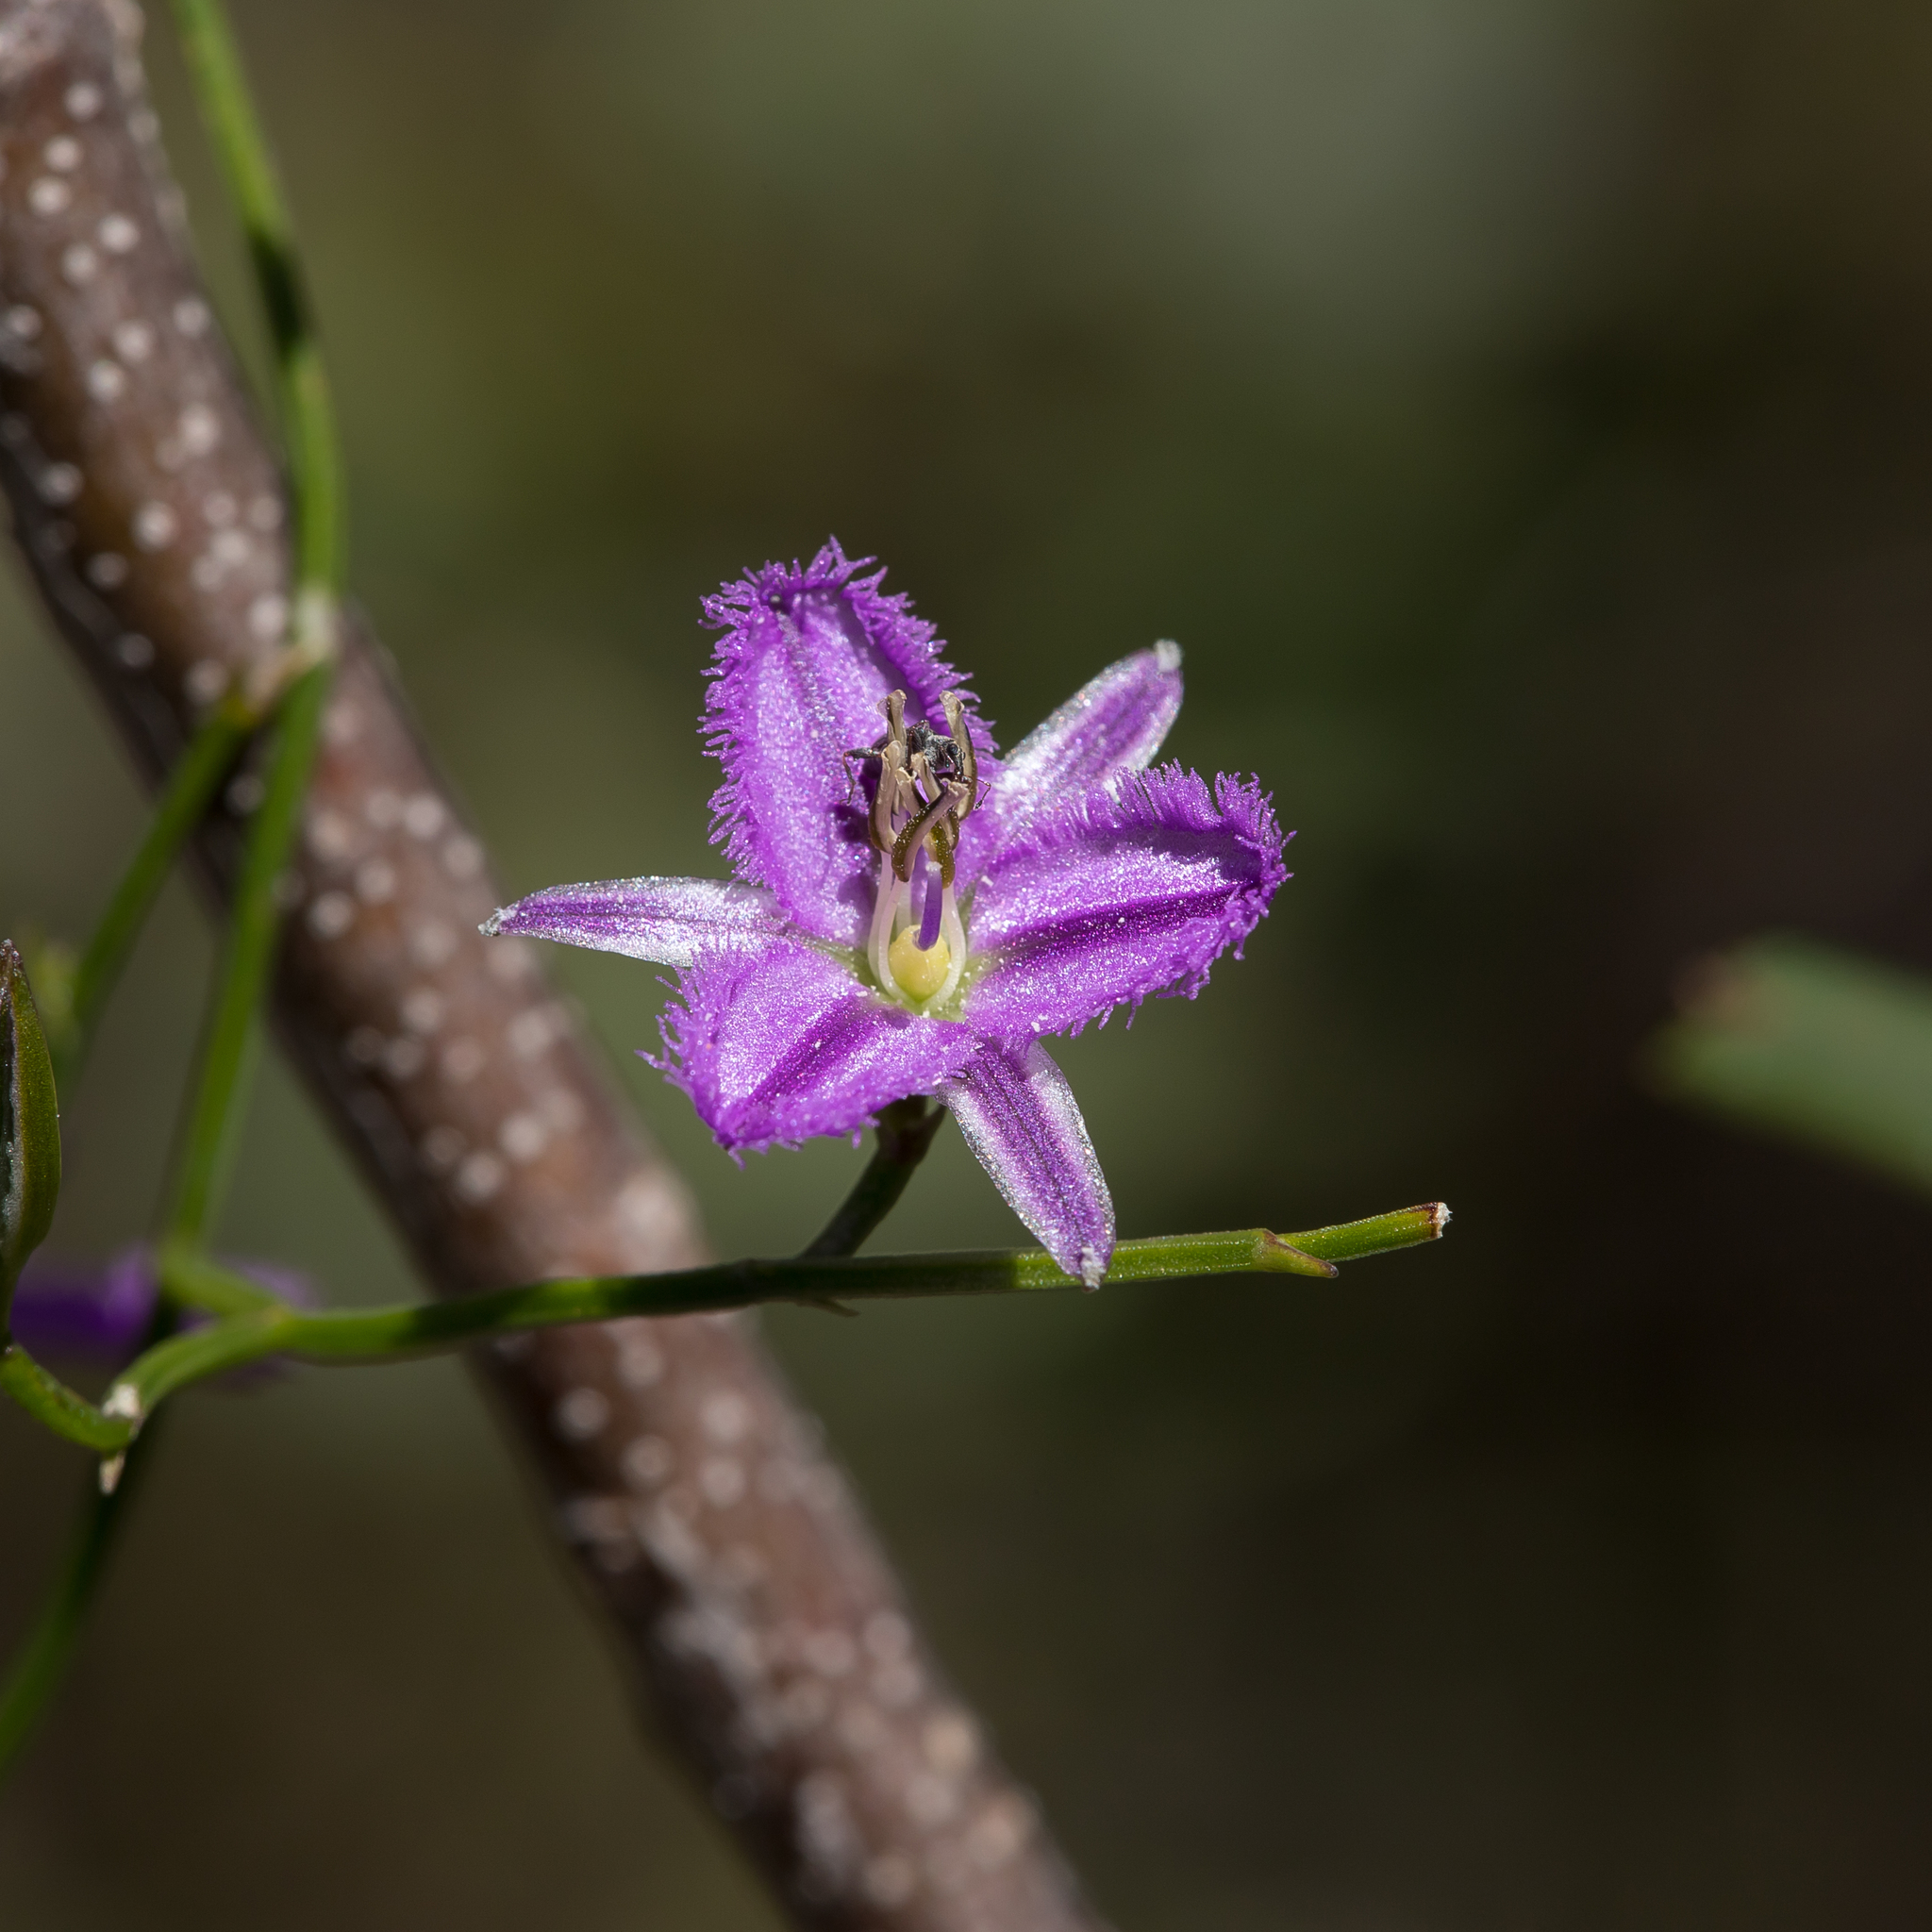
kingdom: Plantae
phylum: Tracheophyta
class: Liliopsida
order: Asparagales
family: Asparagaceae
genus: Thysanotus
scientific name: Thysanotus patersonii
